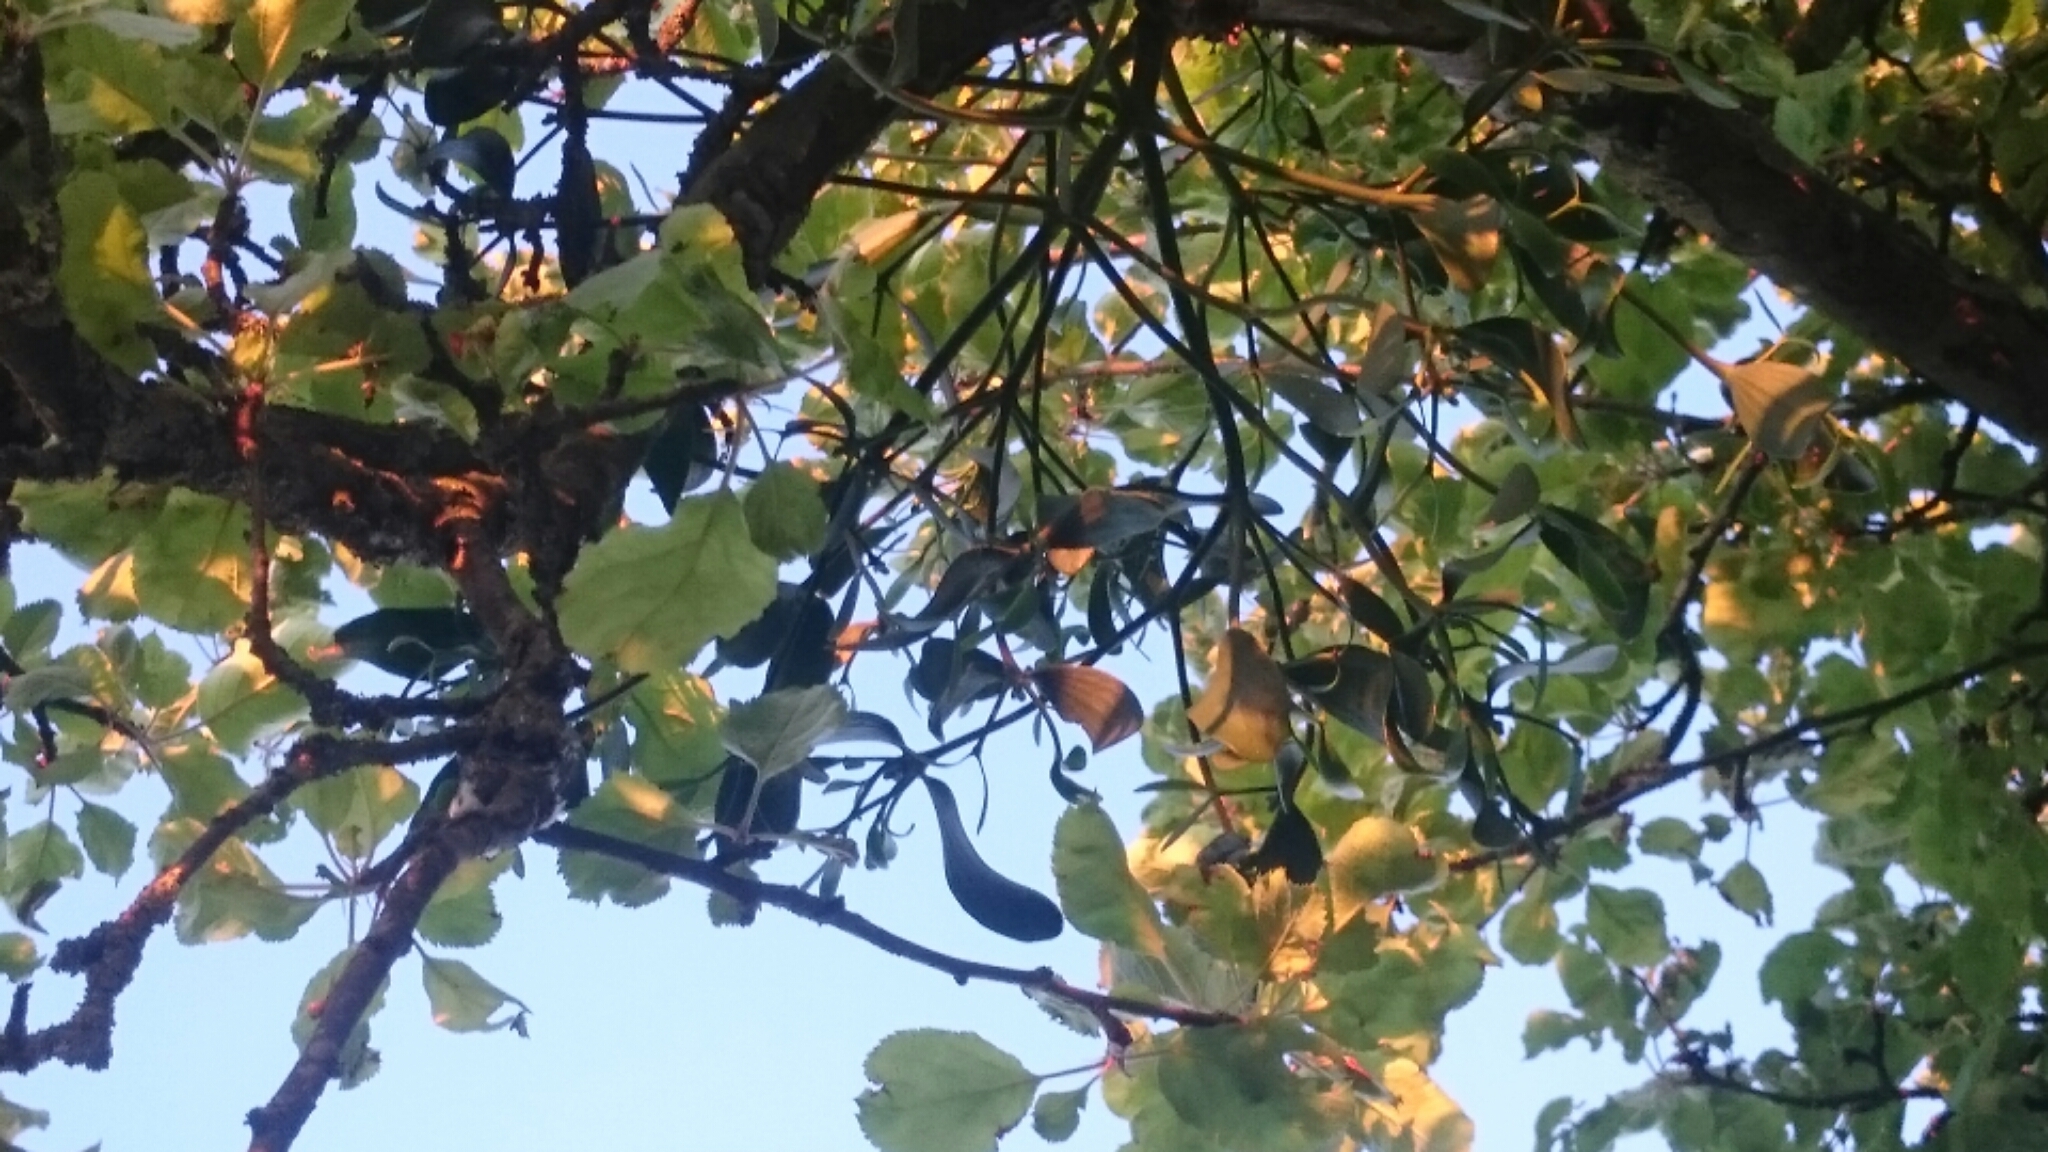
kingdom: Plantae
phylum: Tracheophyta
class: Magnoliopsida
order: Santalales
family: Viscaceae
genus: Viscum
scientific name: Viscum album
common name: Mistletoe
